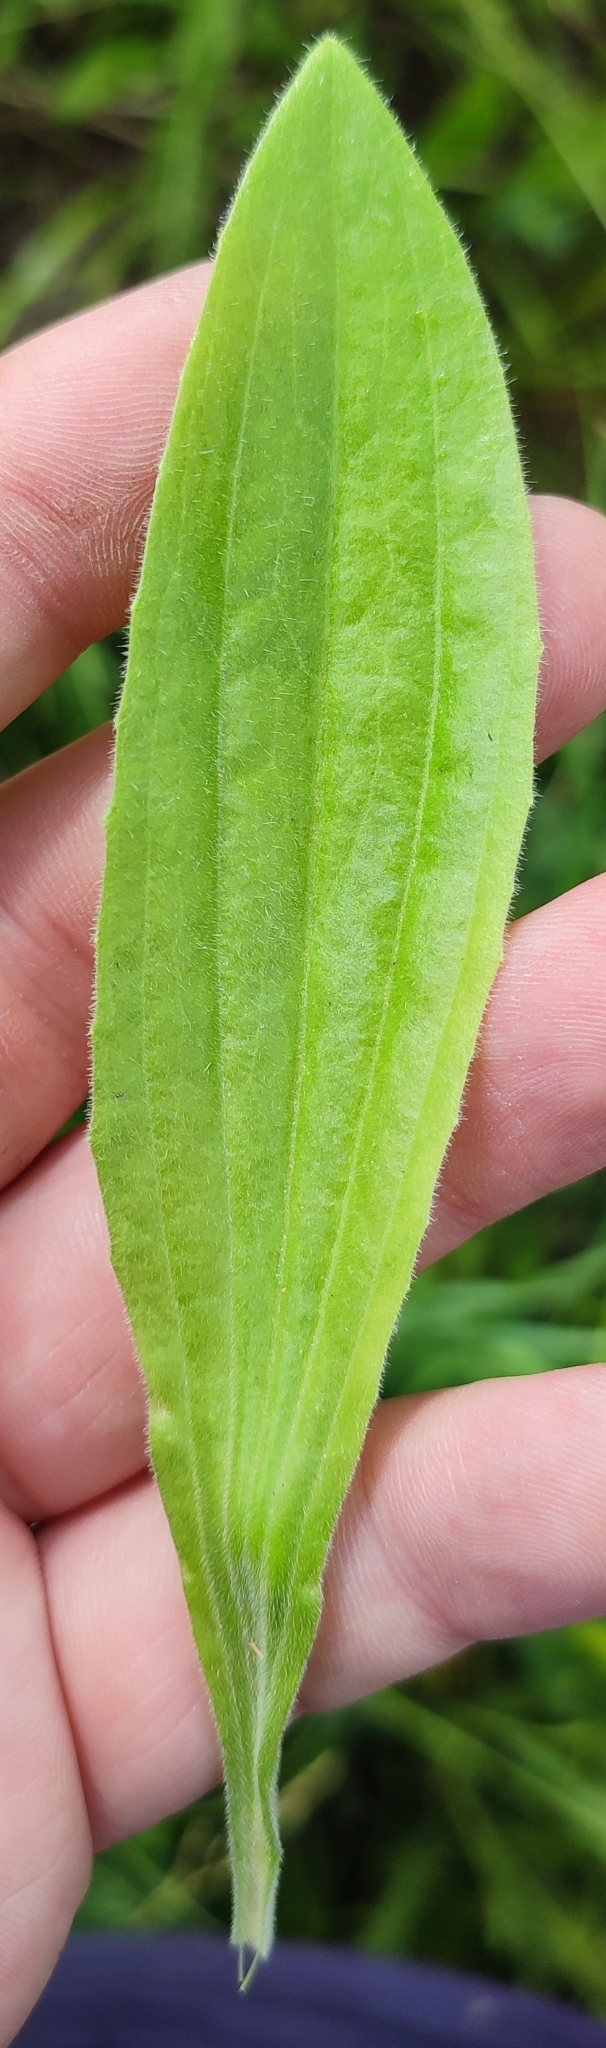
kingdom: Plantae
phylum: Tracheophyta
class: Magnoliopsida
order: Lamiales
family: Plantaginaceae
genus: Plantago
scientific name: Plantago urvillei
